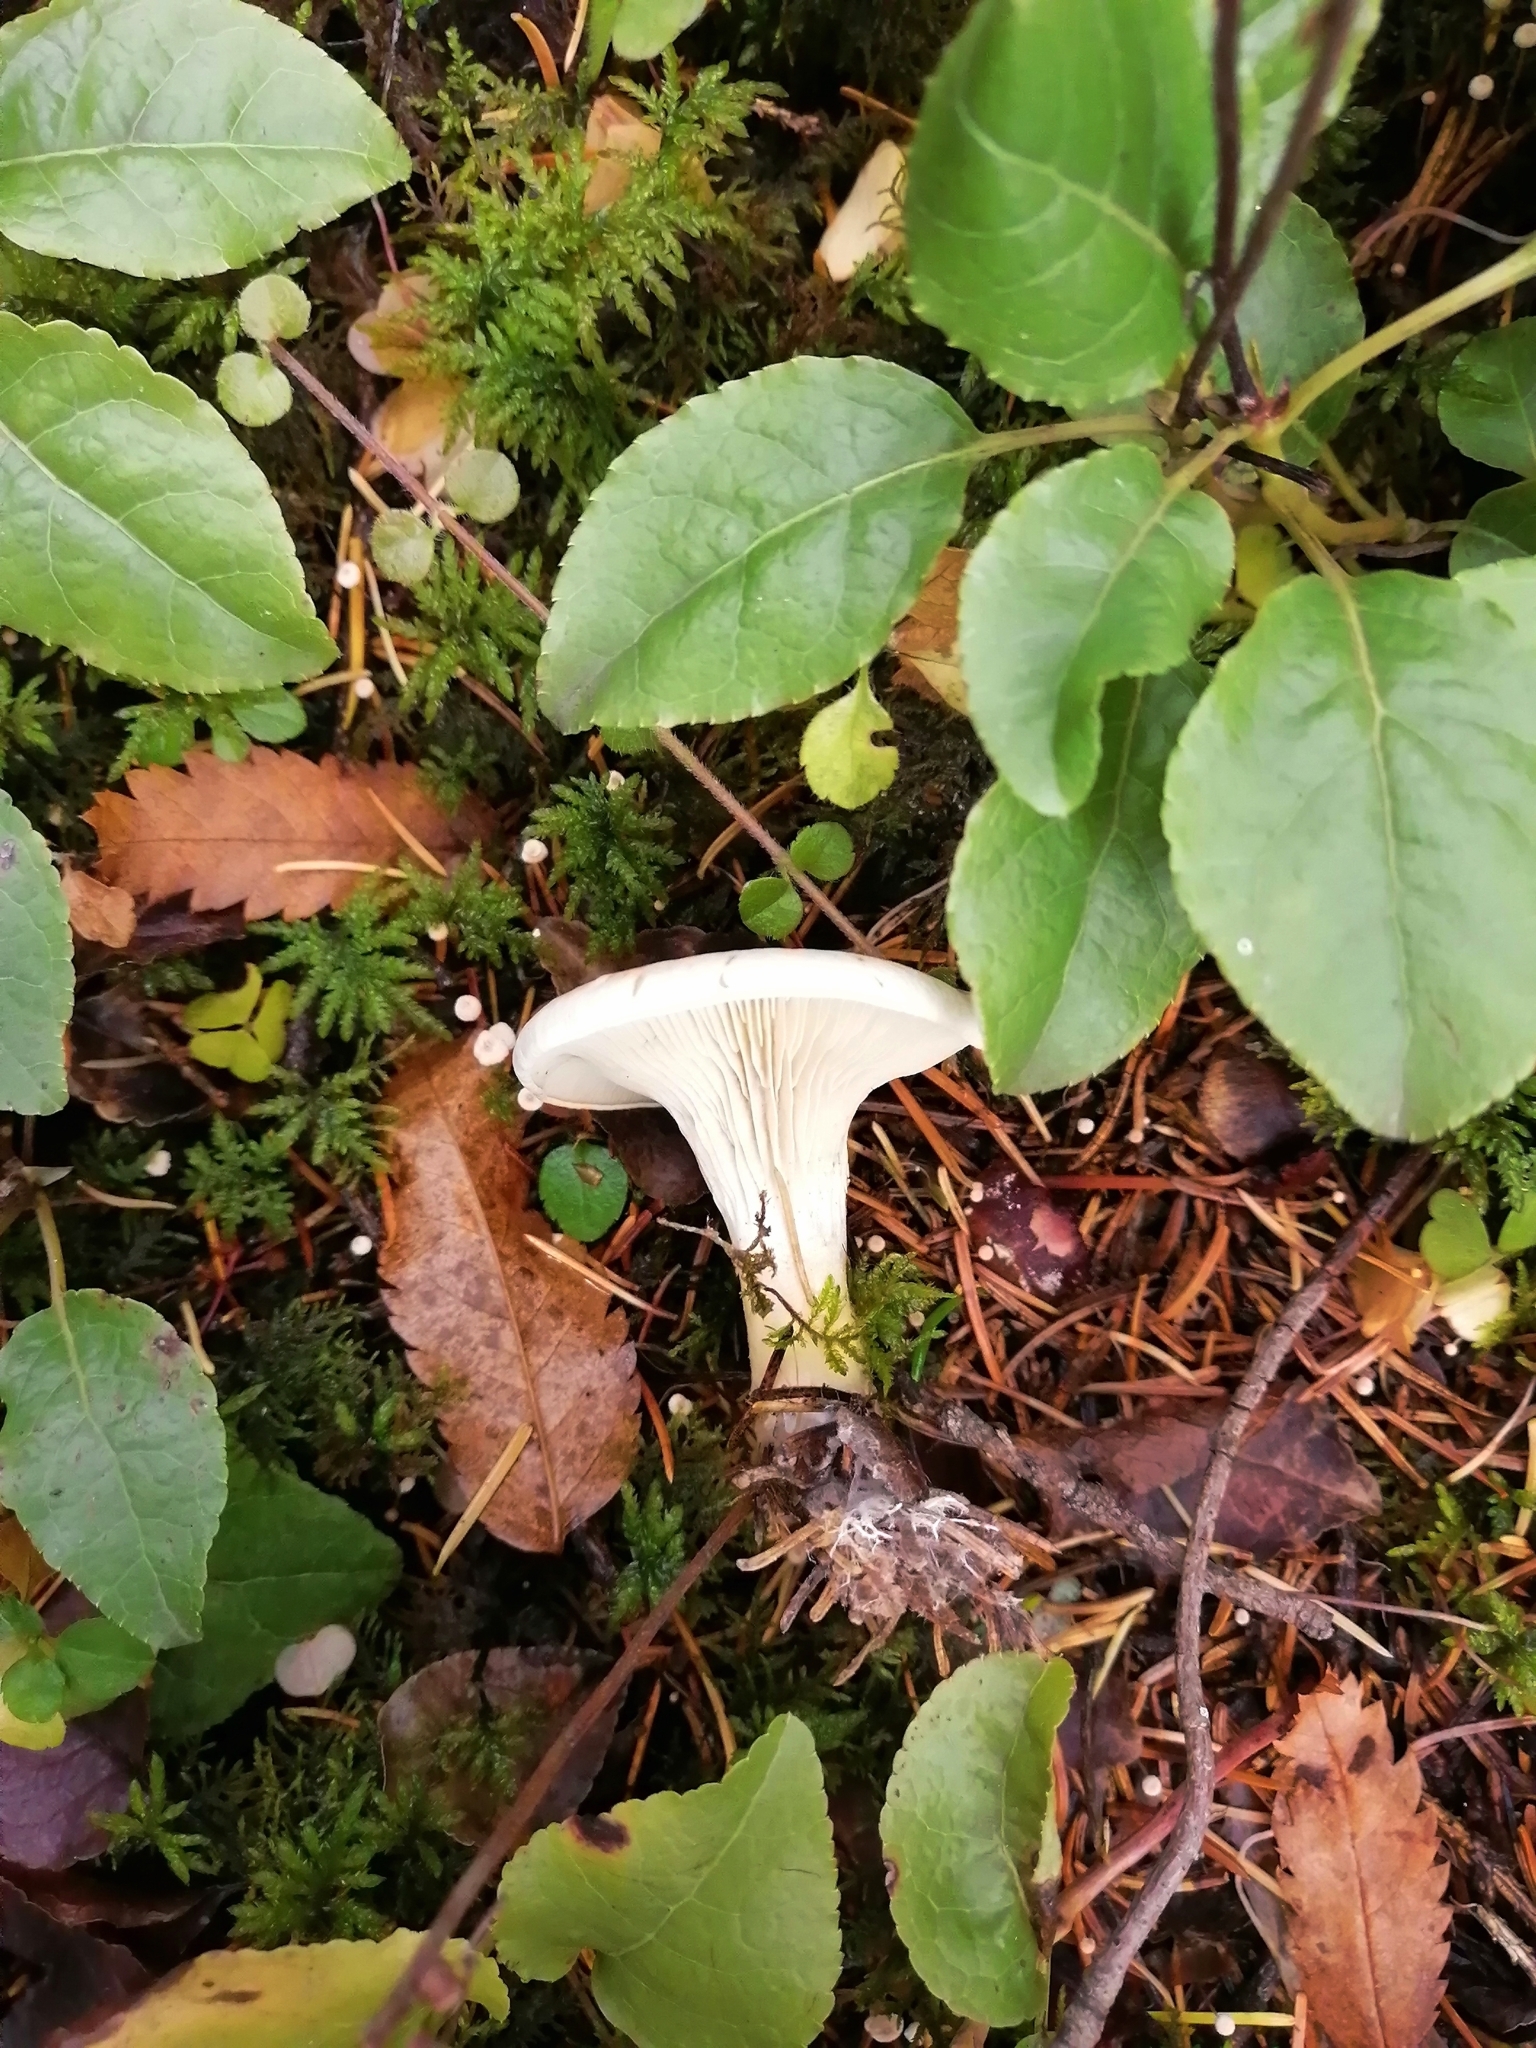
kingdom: Fungi
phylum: Basidiomycota
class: Agaricomycetes
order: Agaricales
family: Entolomataceae
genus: Clitopilus
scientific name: Clitopilus prunulus
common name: The miller
